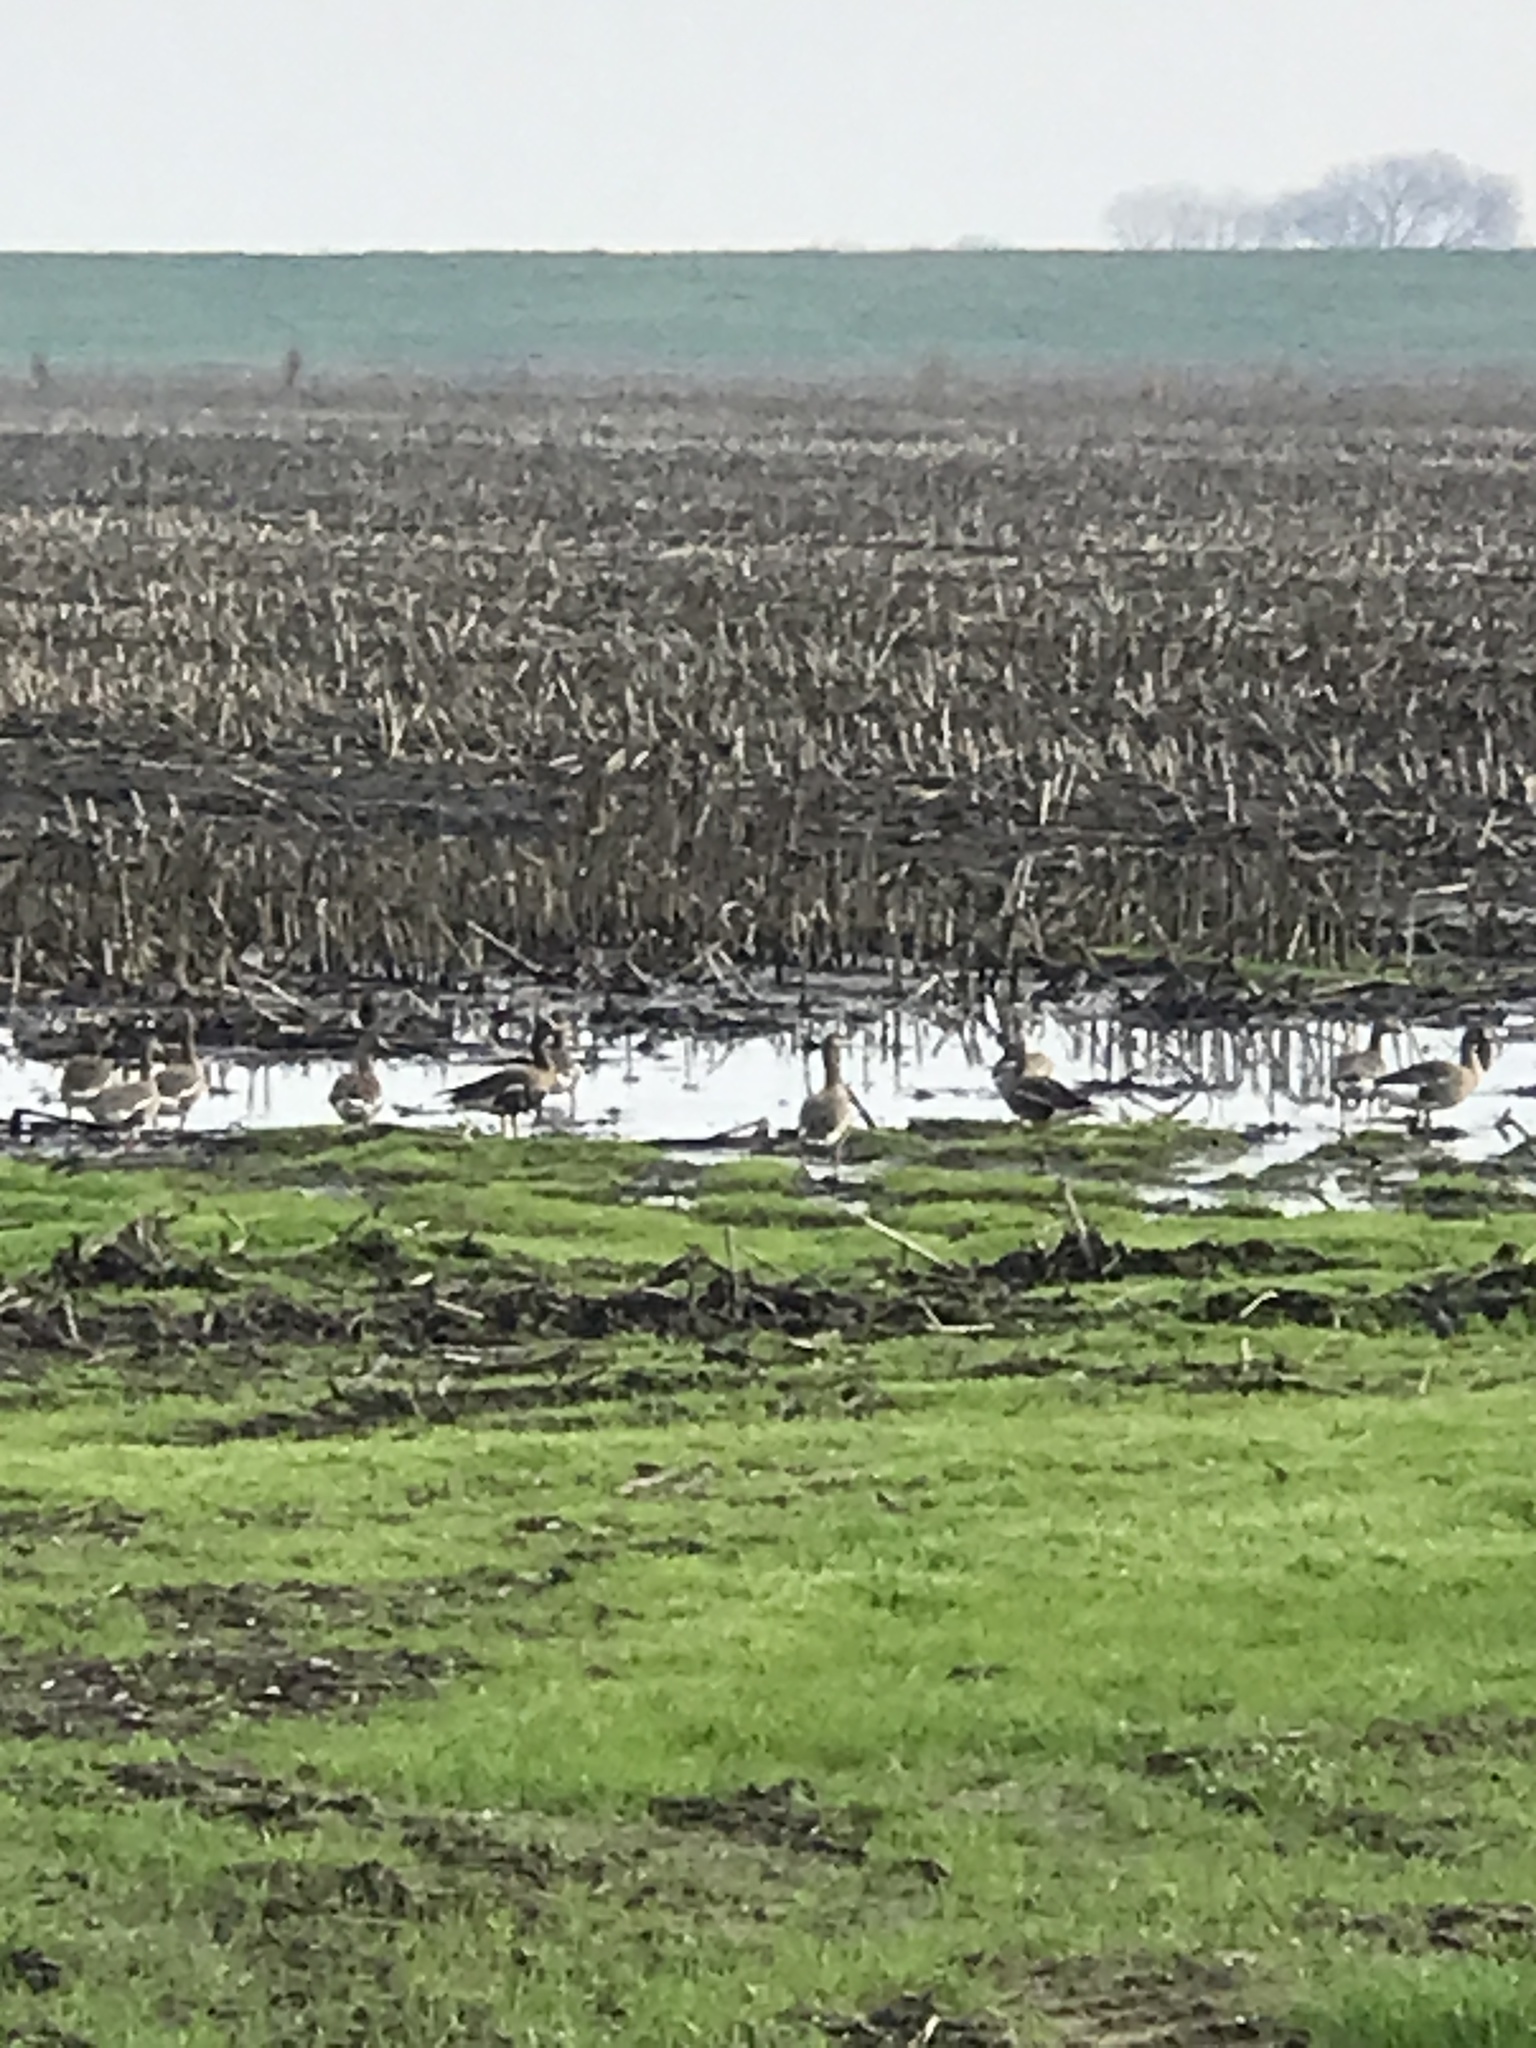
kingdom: Animalia
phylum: Chordata
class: Aves
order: Anseriformes
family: Anatidae
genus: Anser
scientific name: Anser albifrons
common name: Greater white-fronted goose
